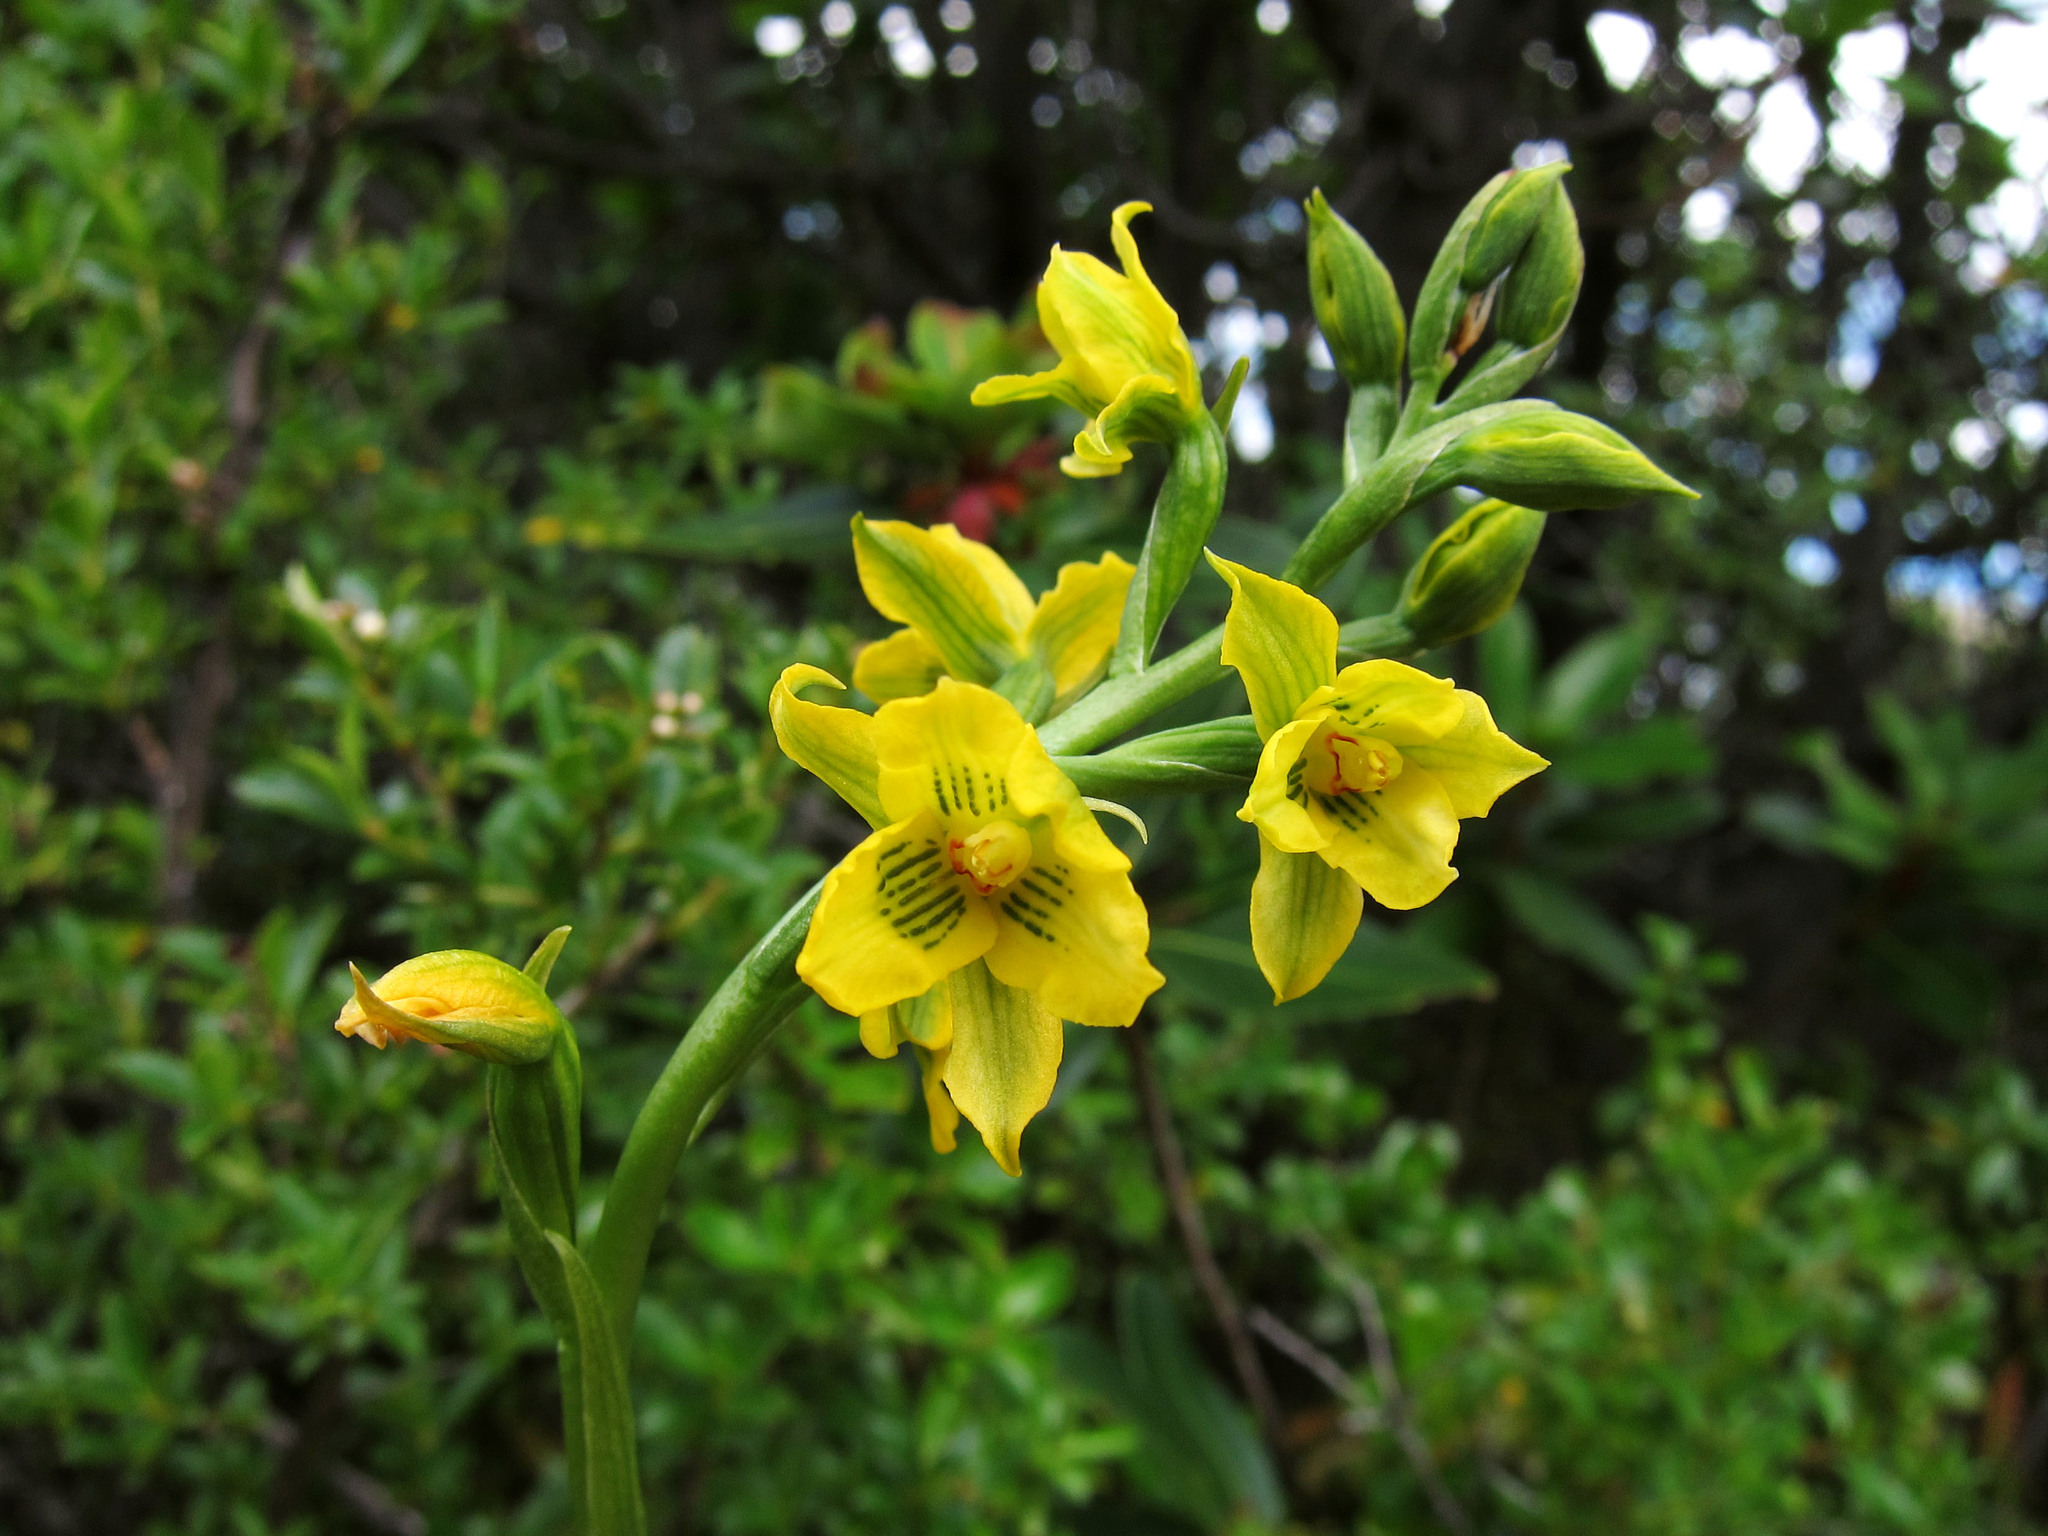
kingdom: Plantae
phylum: Tracheophyta
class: Liliopsida
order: Asparagales
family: Orchidaceae
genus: Gavilea
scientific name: Gavilea gladysiae
